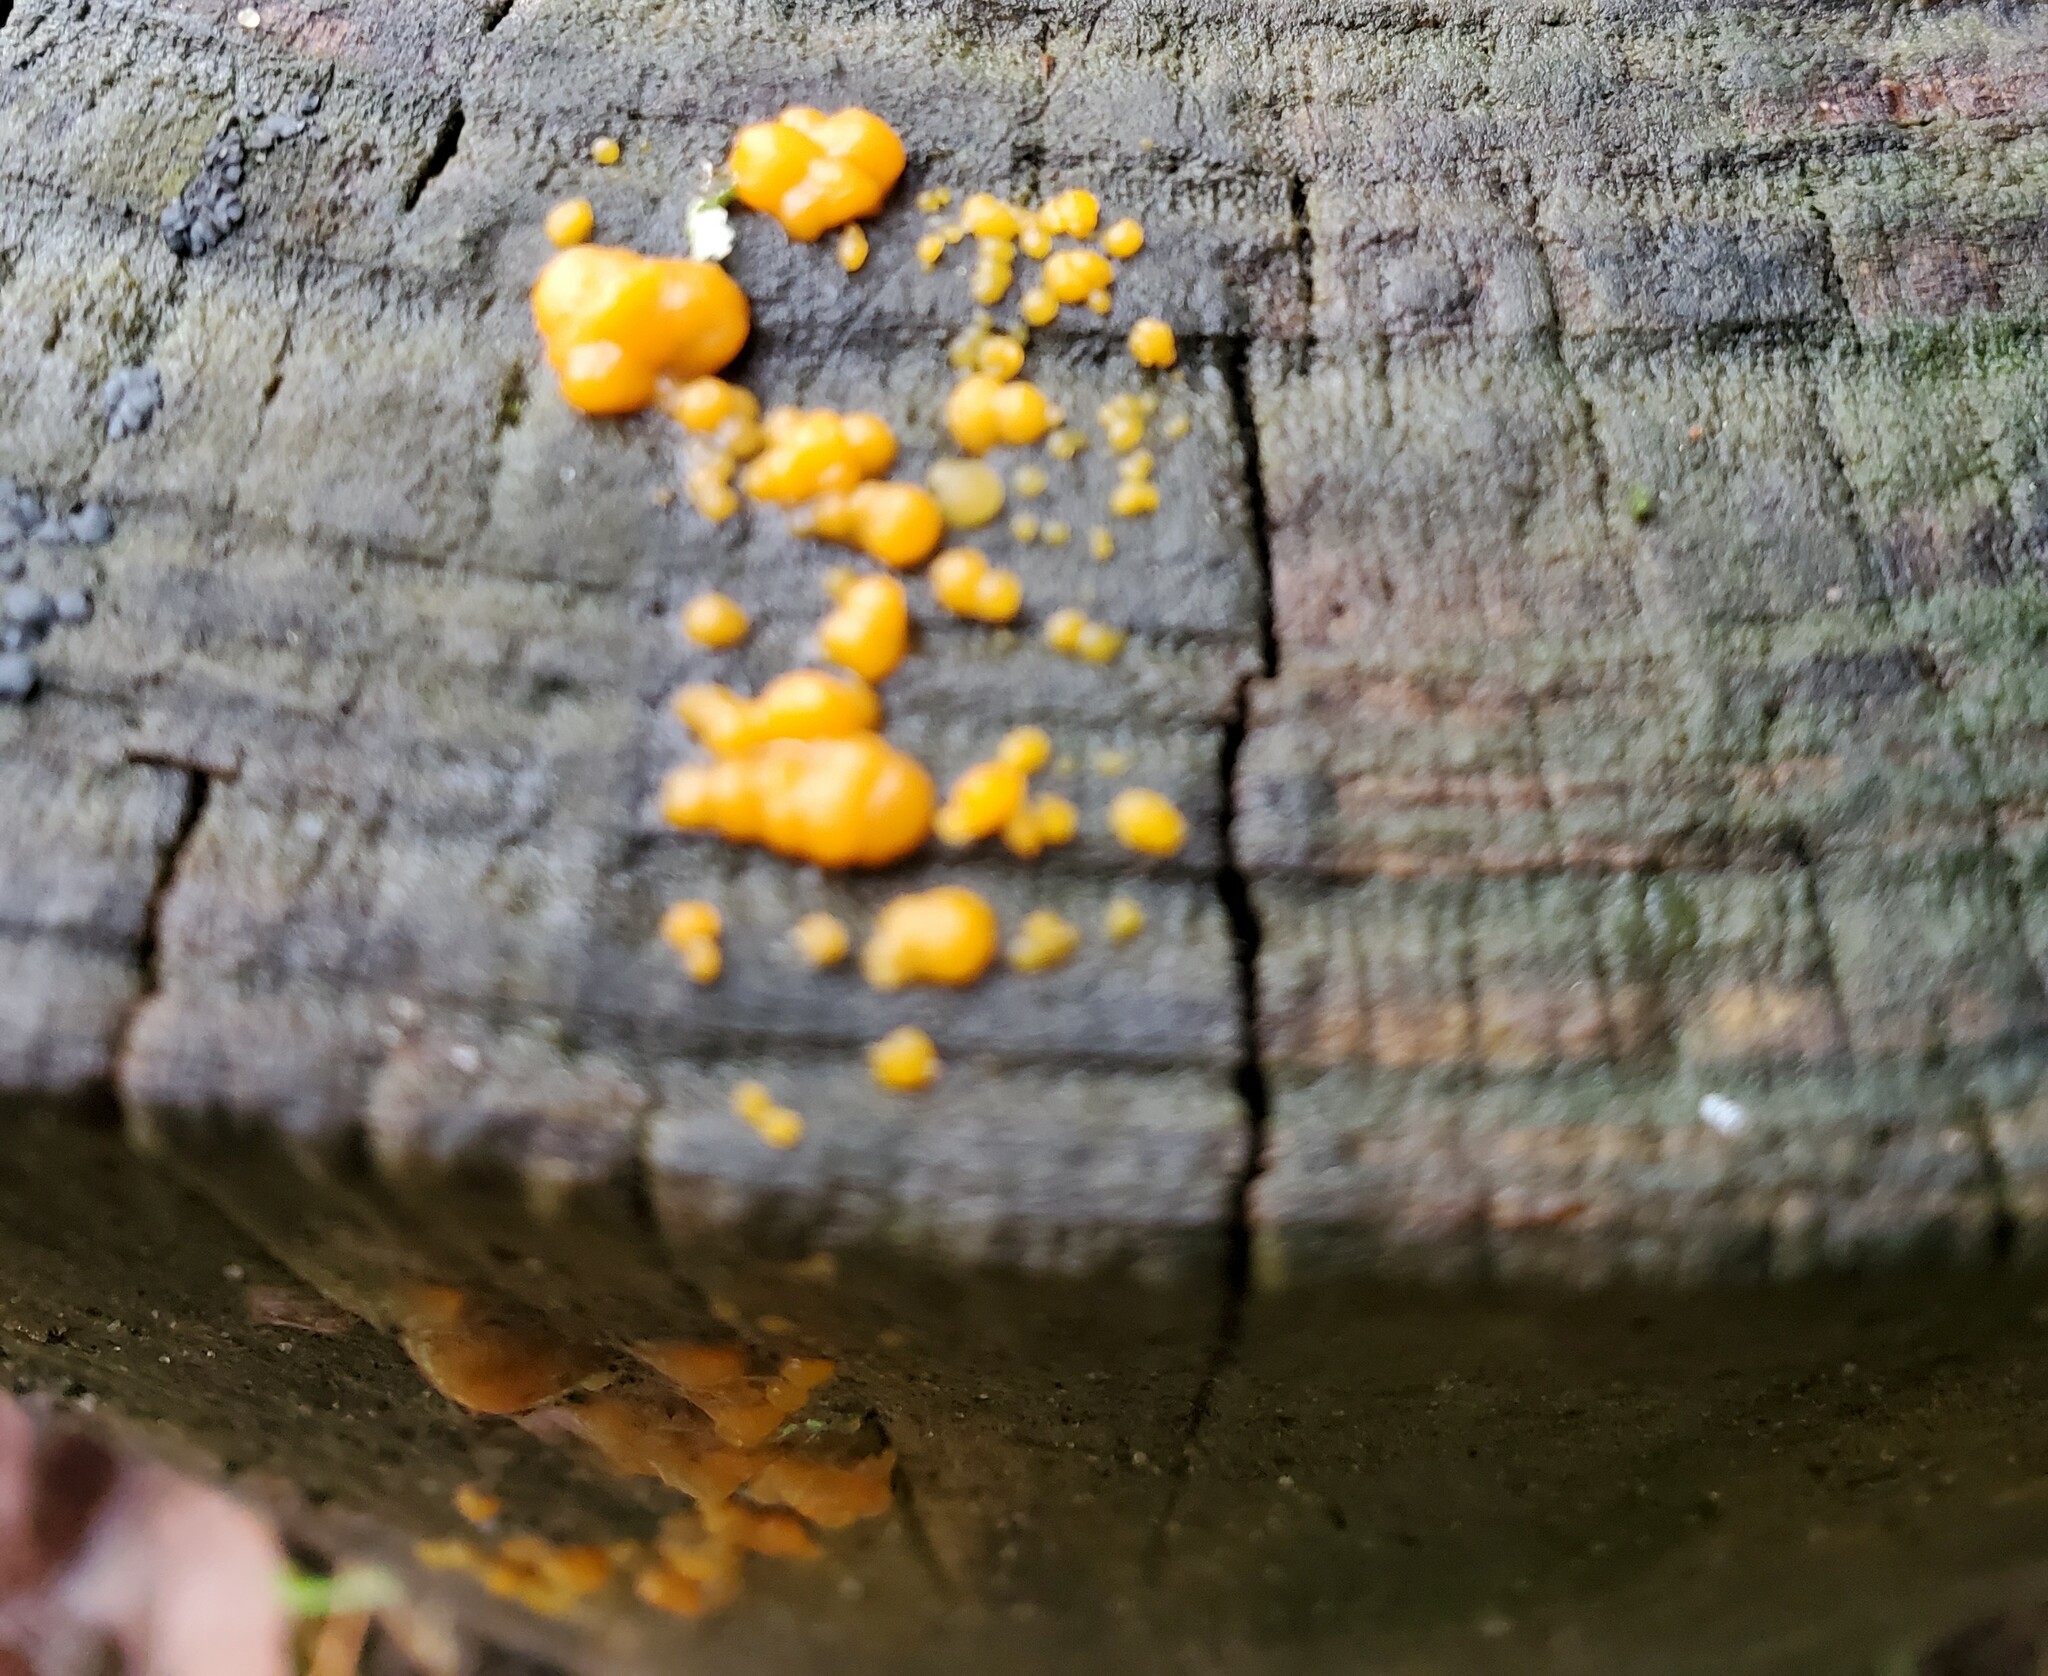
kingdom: Fungi
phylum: Basidiomycota
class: Dacrymycetes
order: Dacrymycetales
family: Dacrymycetaceae
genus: Dacrymyces
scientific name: Dacrymyces stillatus
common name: Common jelly spot
